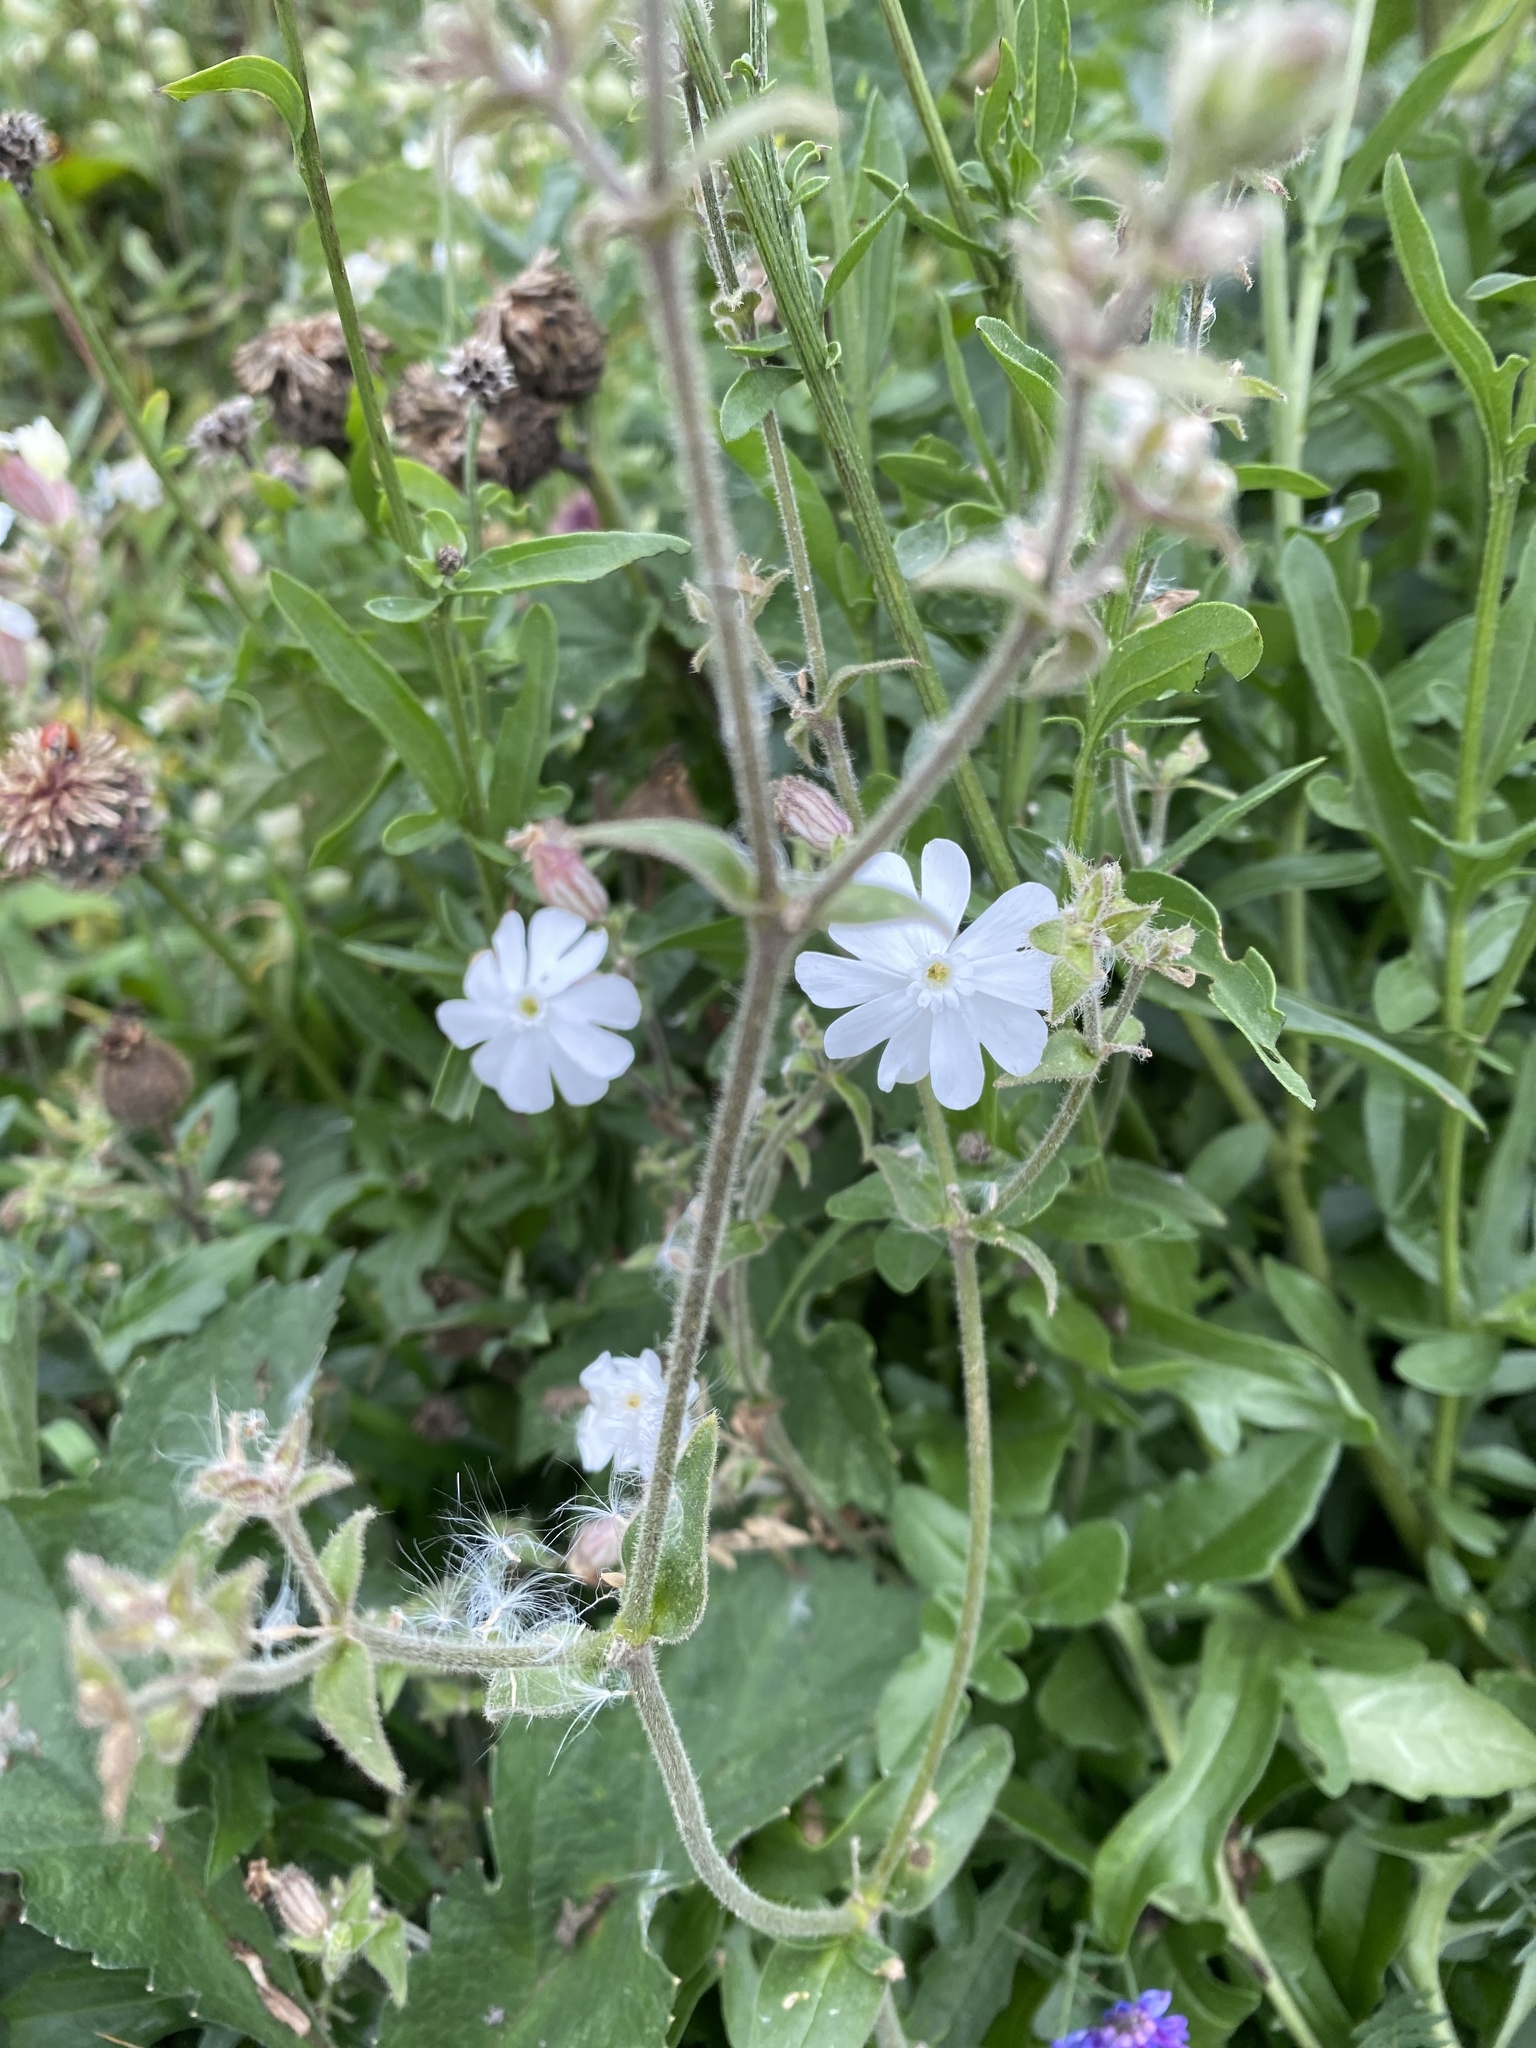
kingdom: Plantae
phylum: Tracheophyta
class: Magnoliopsida
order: Caryophyllales
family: Caryophyllaceae
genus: Silene
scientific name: Silene latifolia
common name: White campion
